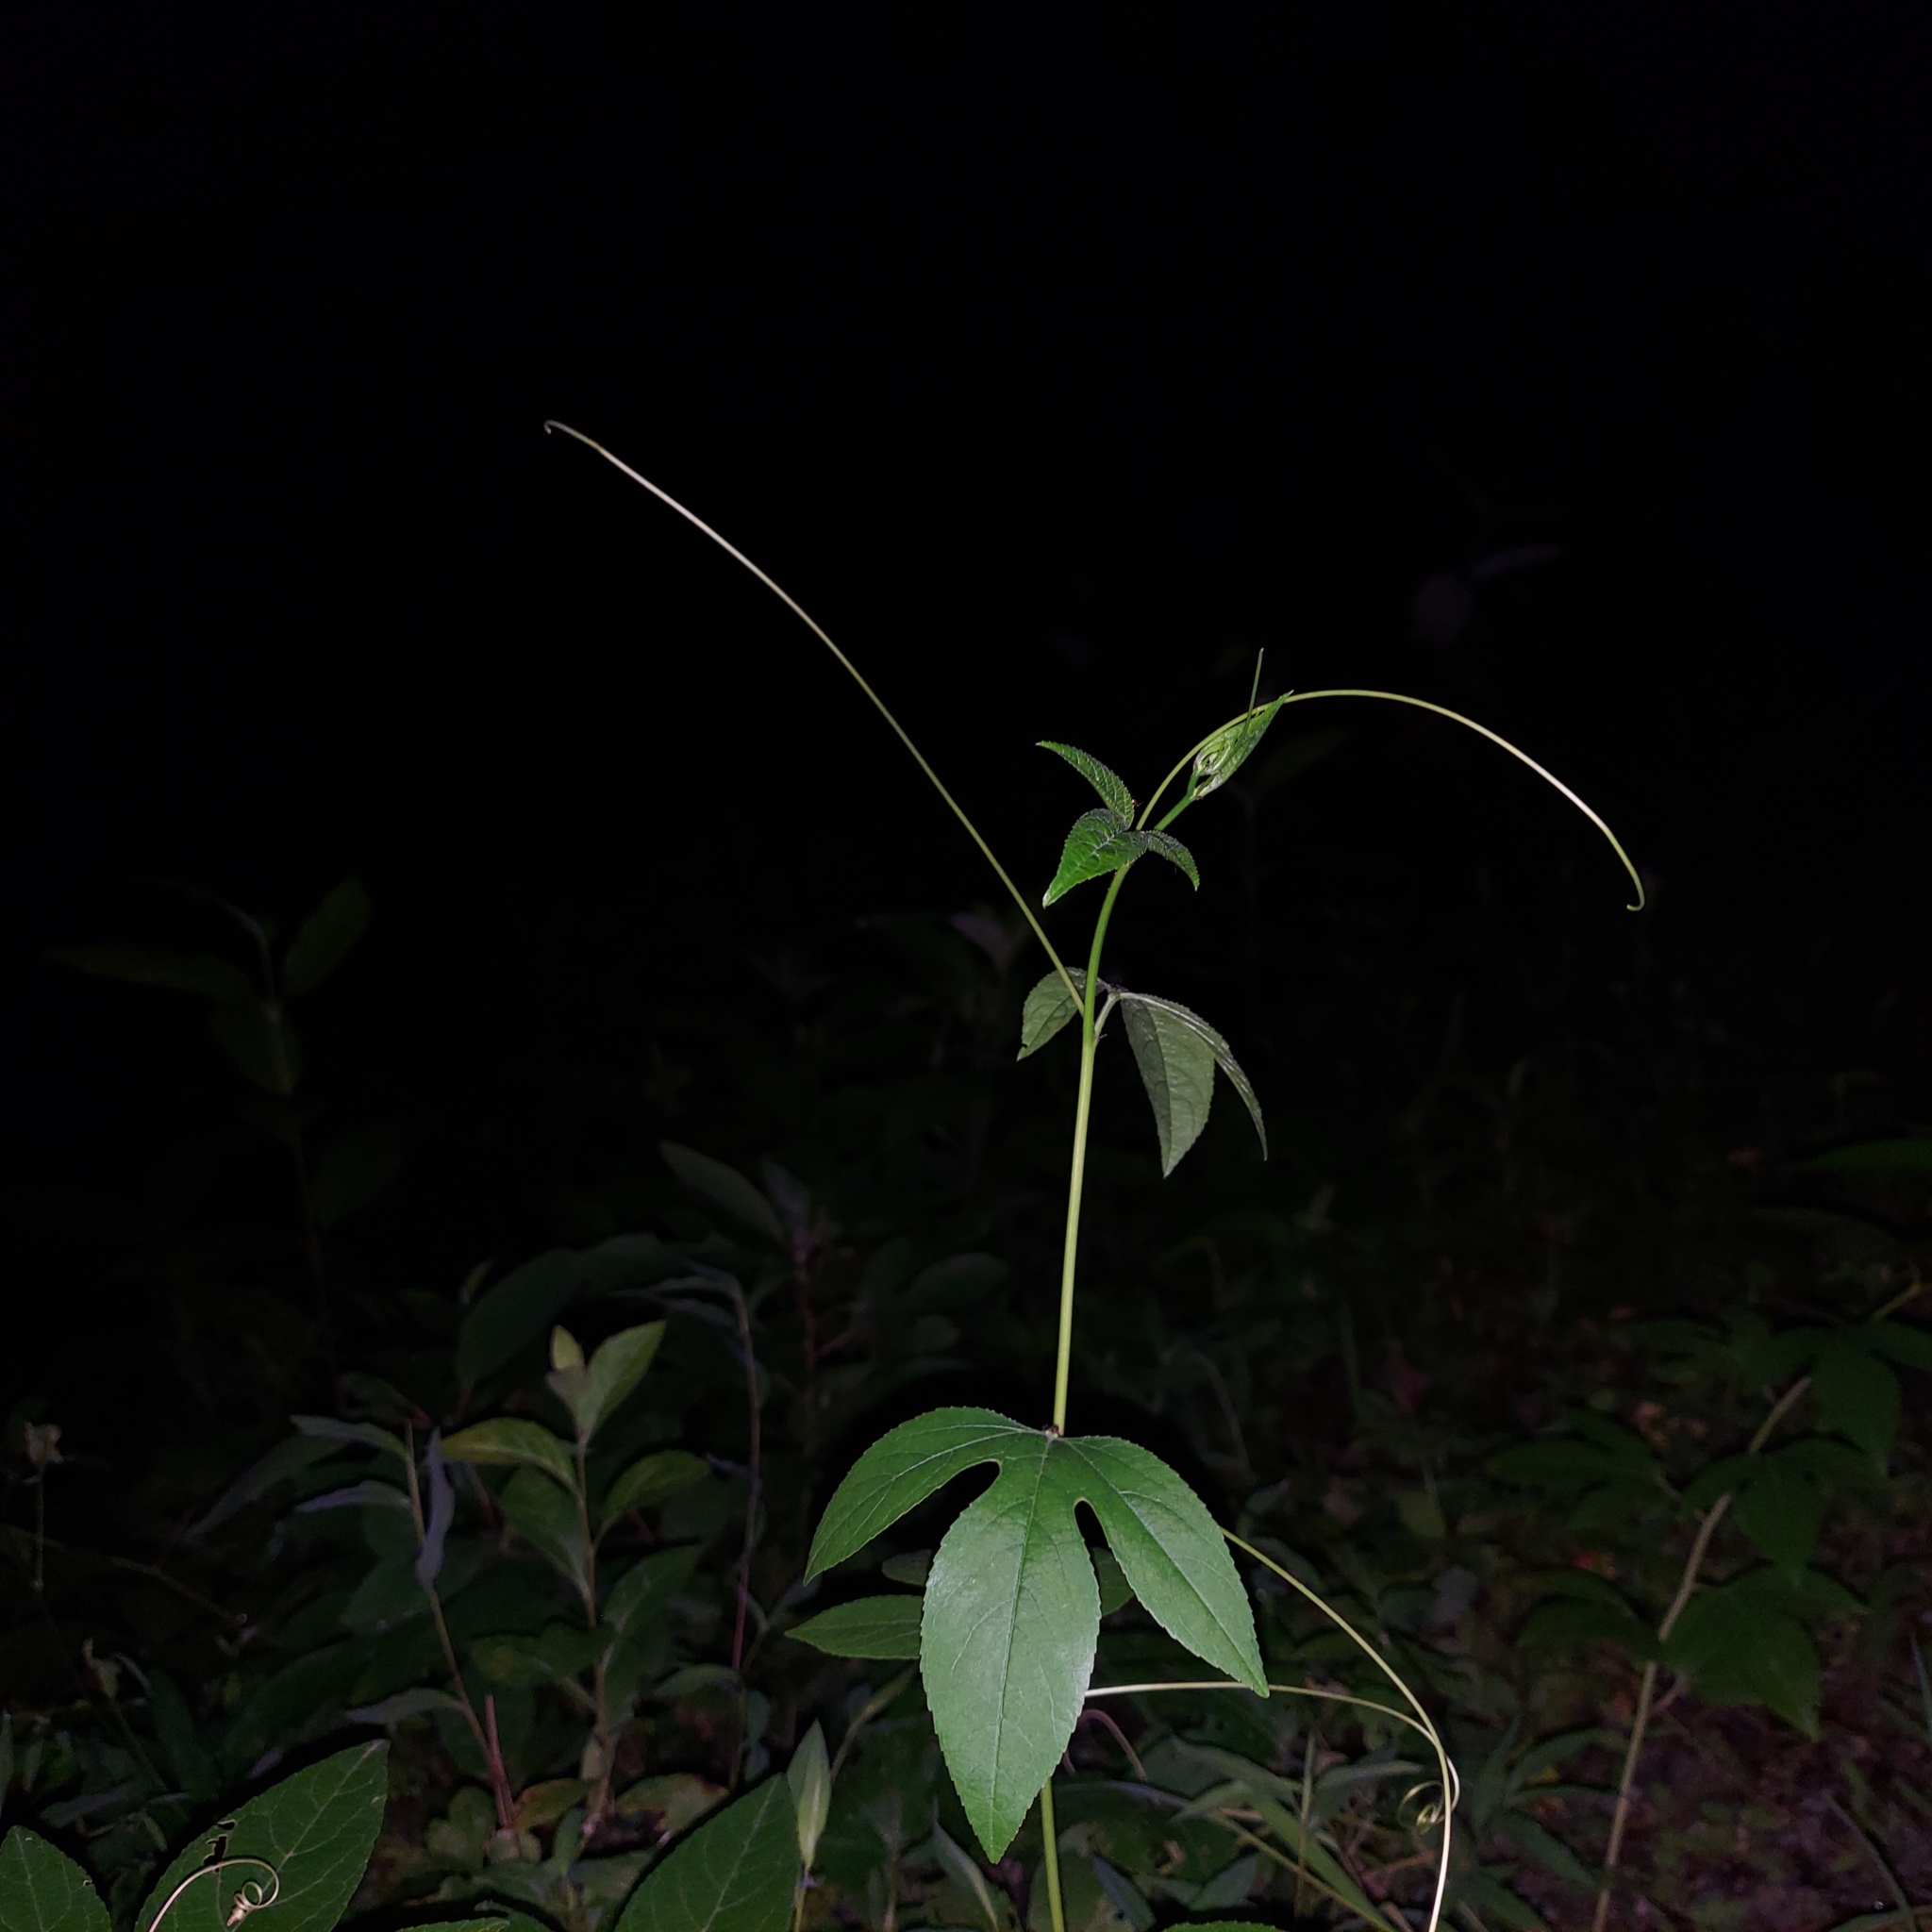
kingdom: Plantae
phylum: Tracheophyta
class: Magnoliopsida
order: Malpighiales
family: Passifloraceae
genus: Passiflora
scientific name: Passiflora incarnata
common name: Apricot-vine
